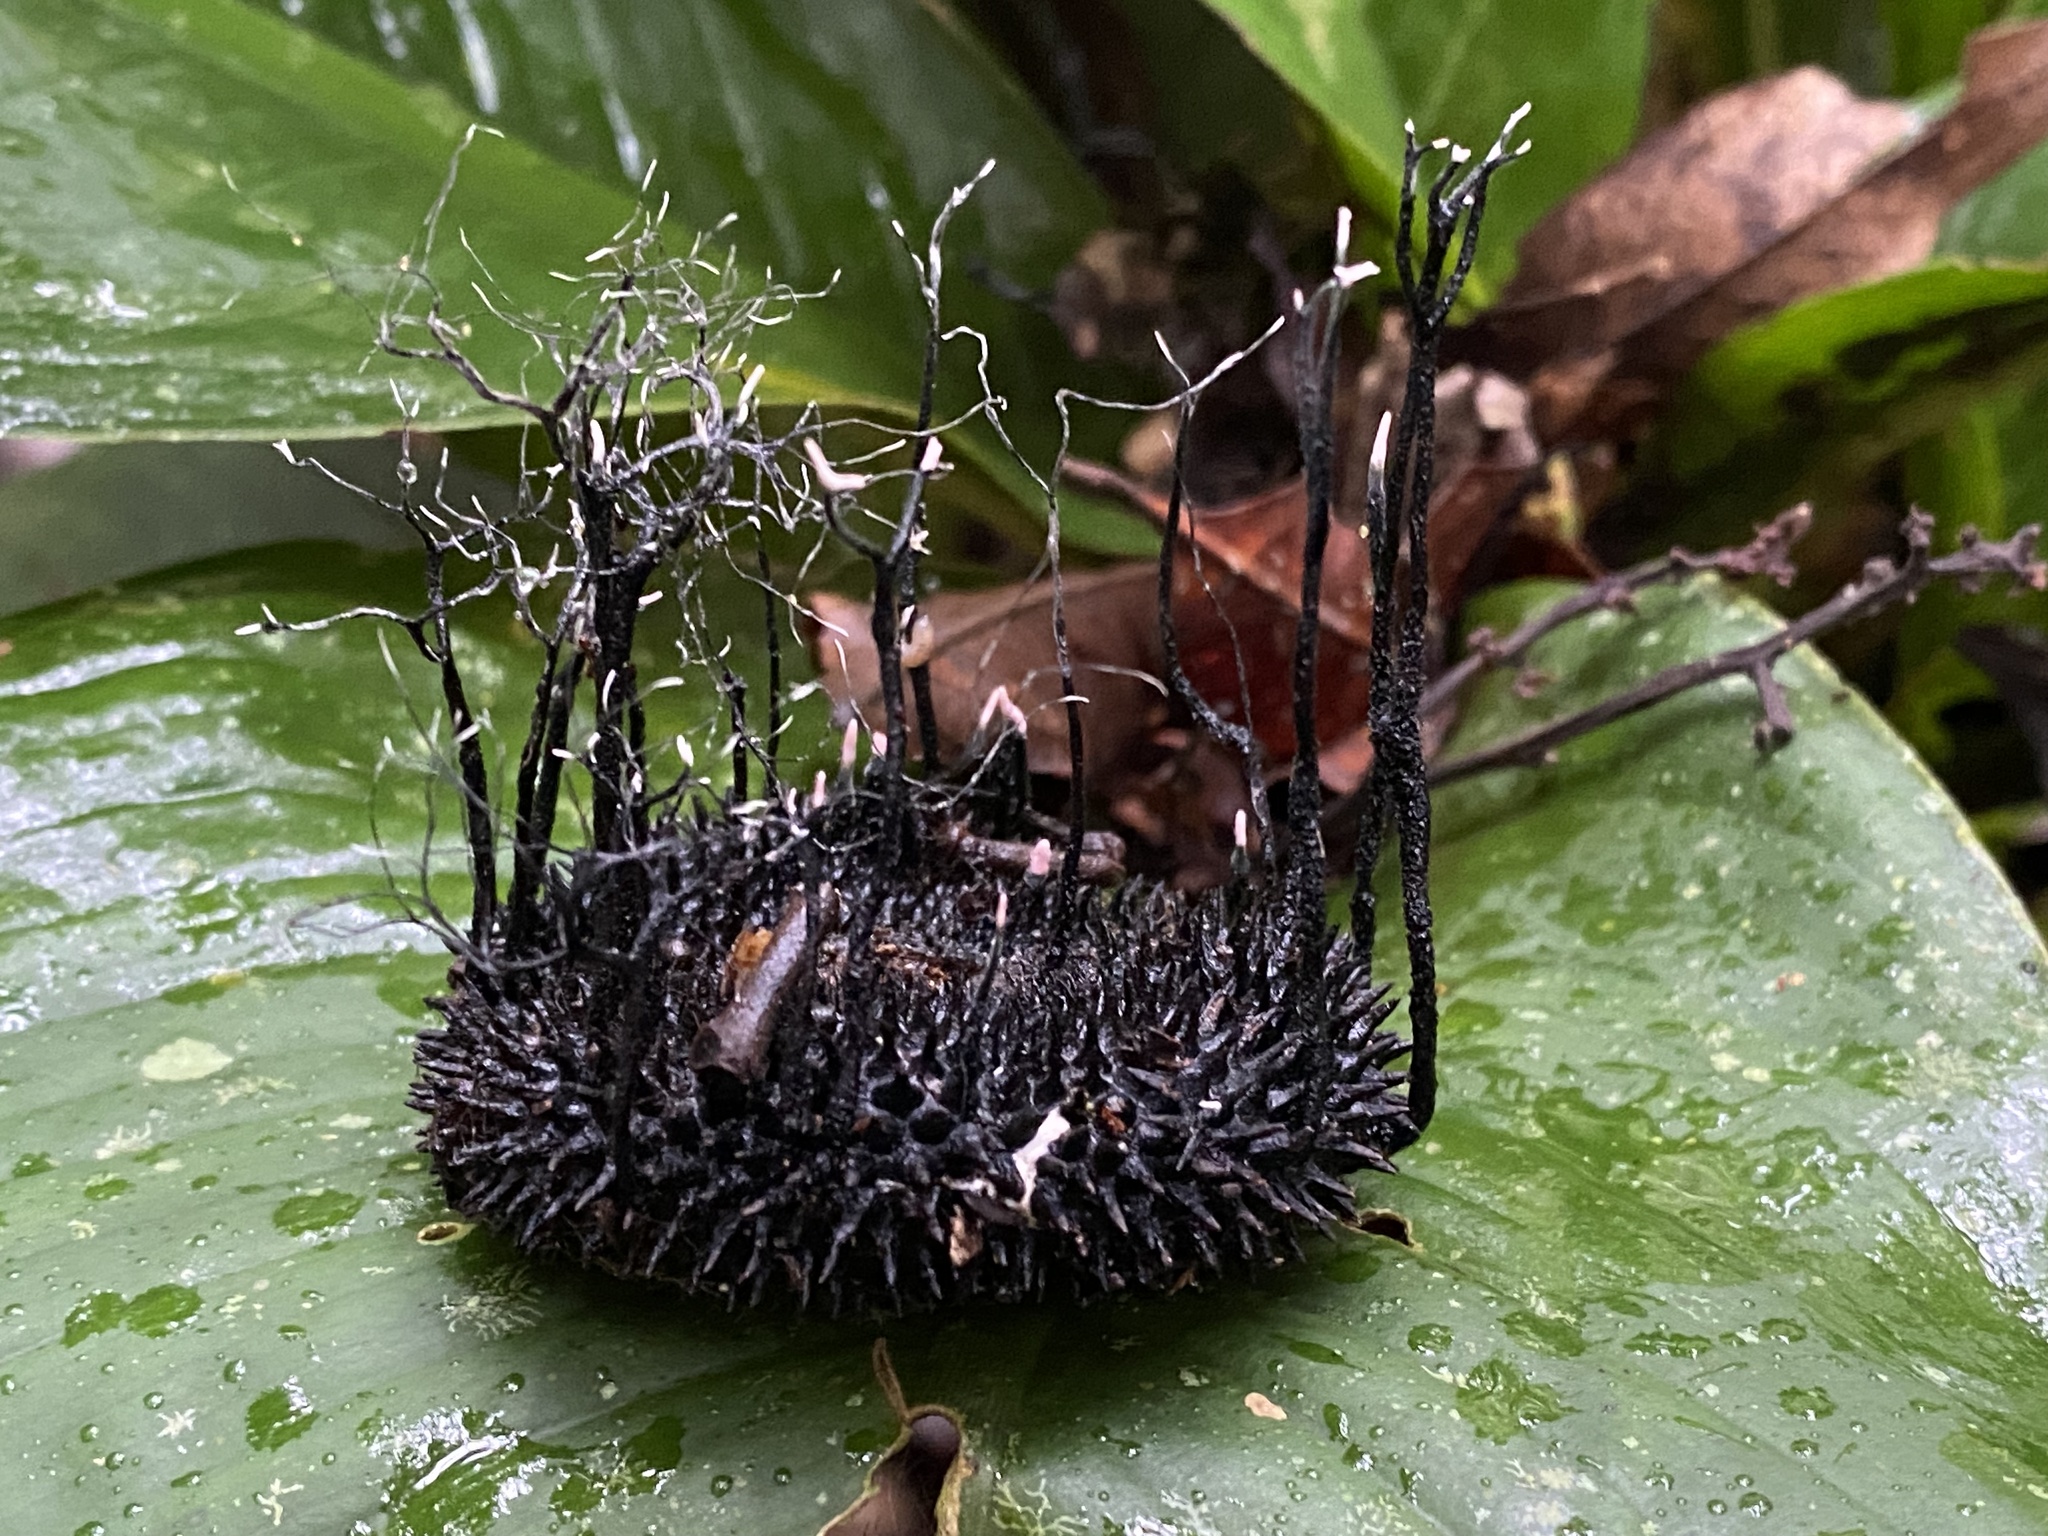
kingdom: Fungi
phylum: Ascomycota
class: Sordariomycetes
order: Xylariales
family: Xylariaceae
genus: Xylaria
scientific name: Xylaria apeibae
